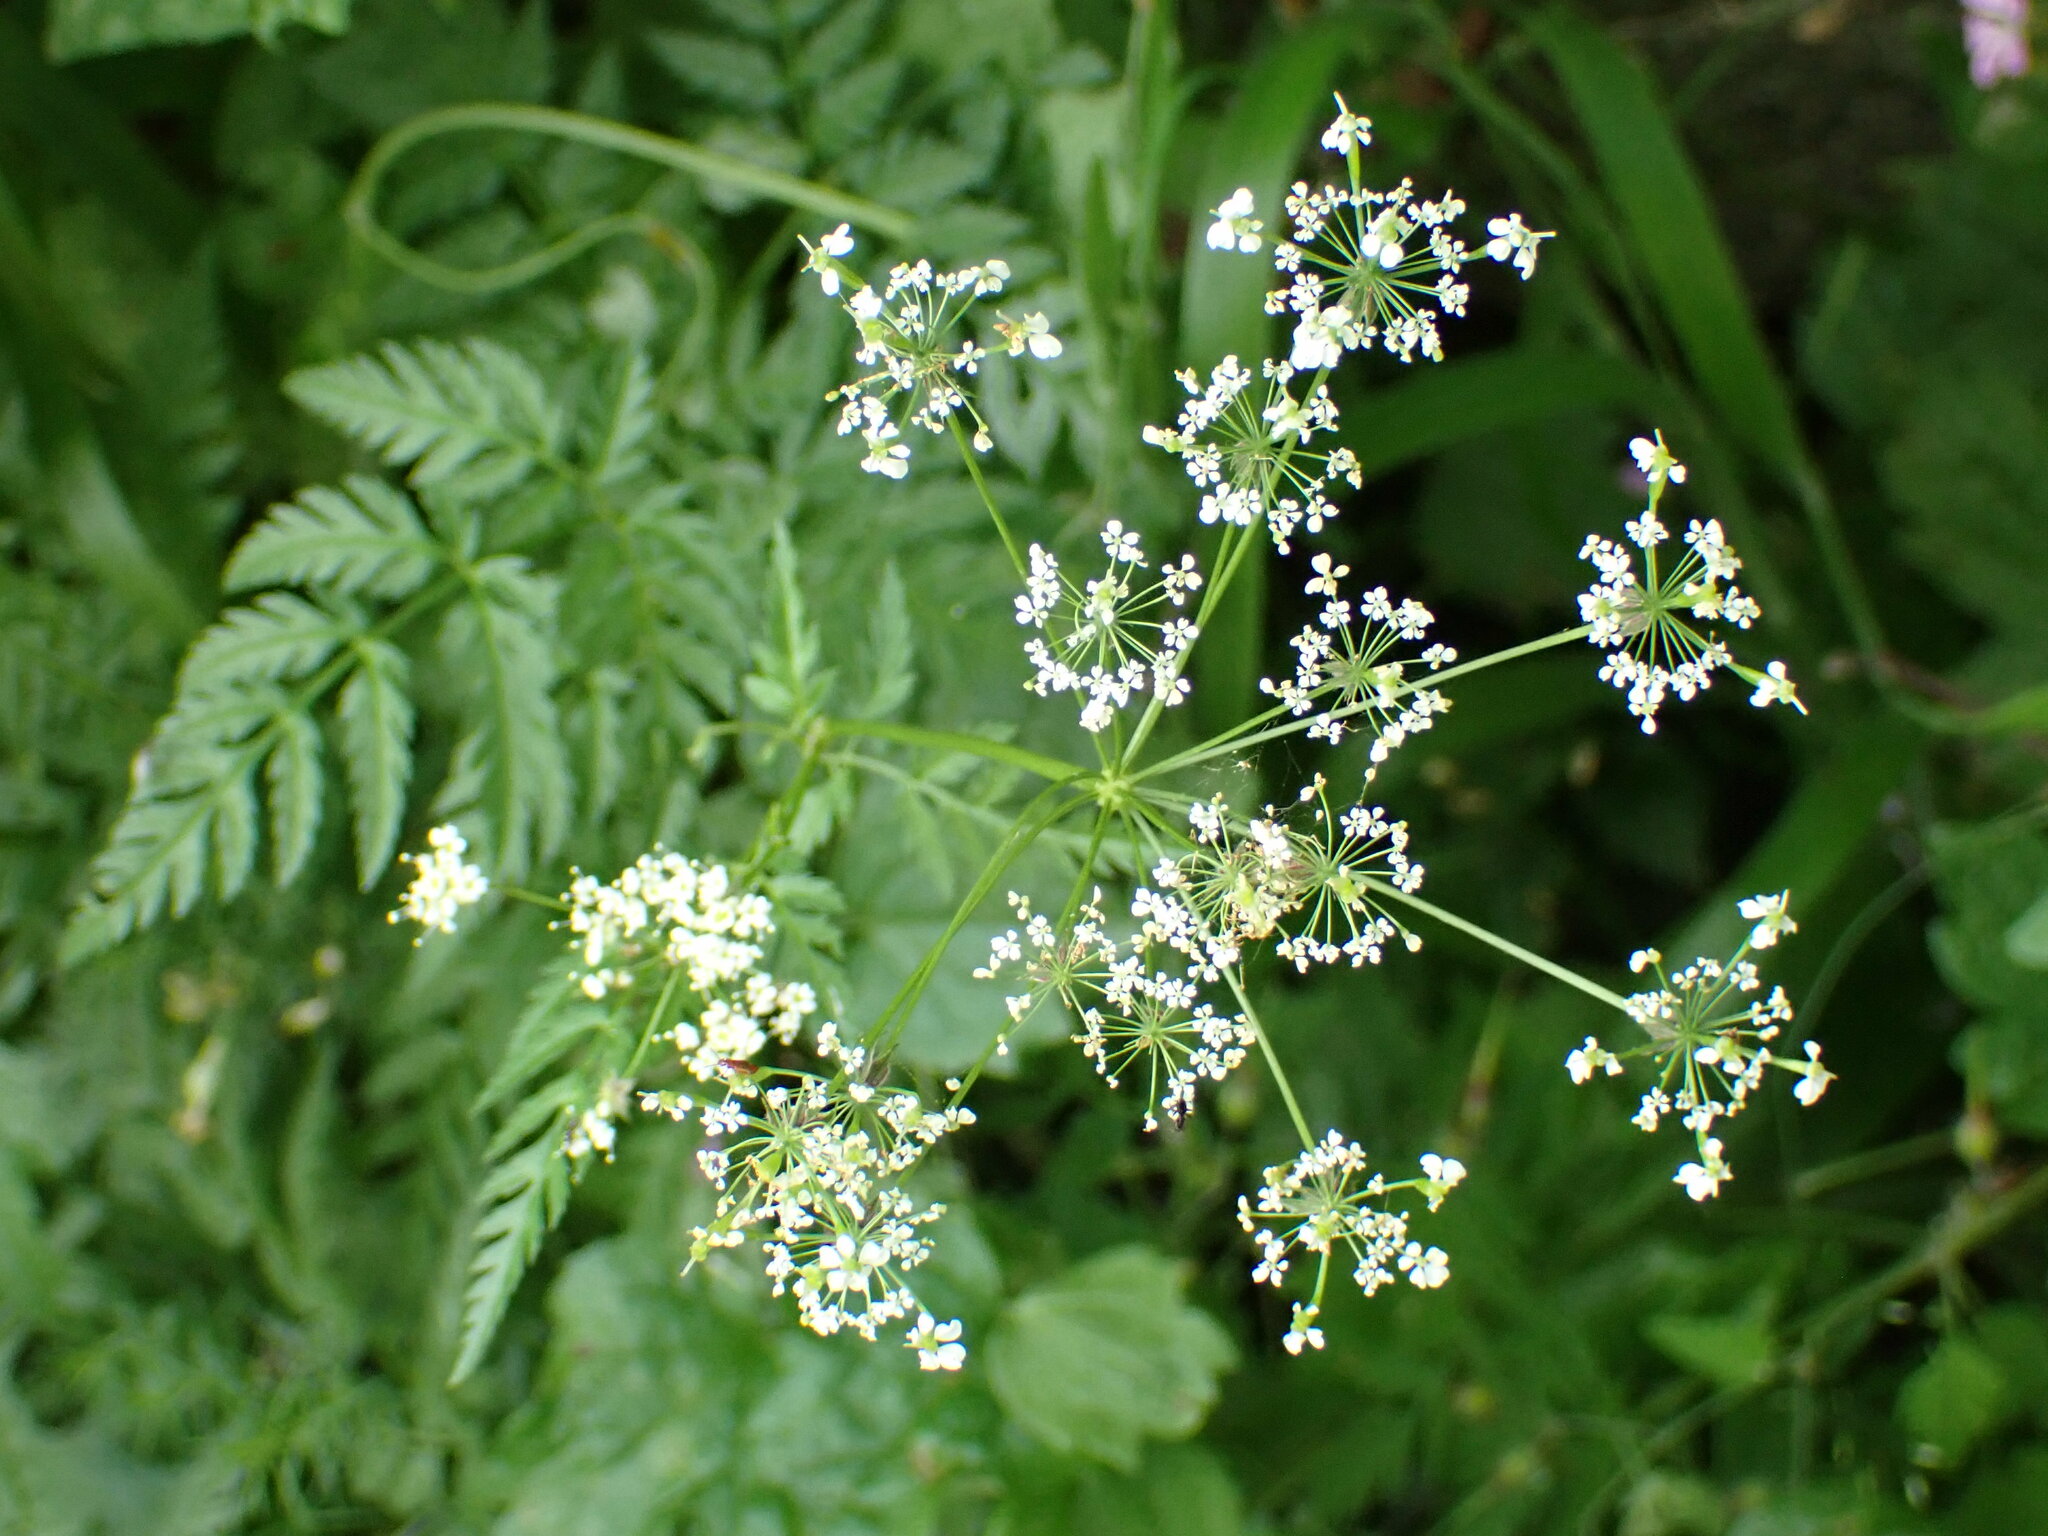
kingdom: Plantae
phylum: Tracheophyta
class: Magnoliopsida
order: Apiales
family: Apiaceae
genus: Chaerophyllum
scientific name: Chaerophyllum aureum
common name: Golden chervil
